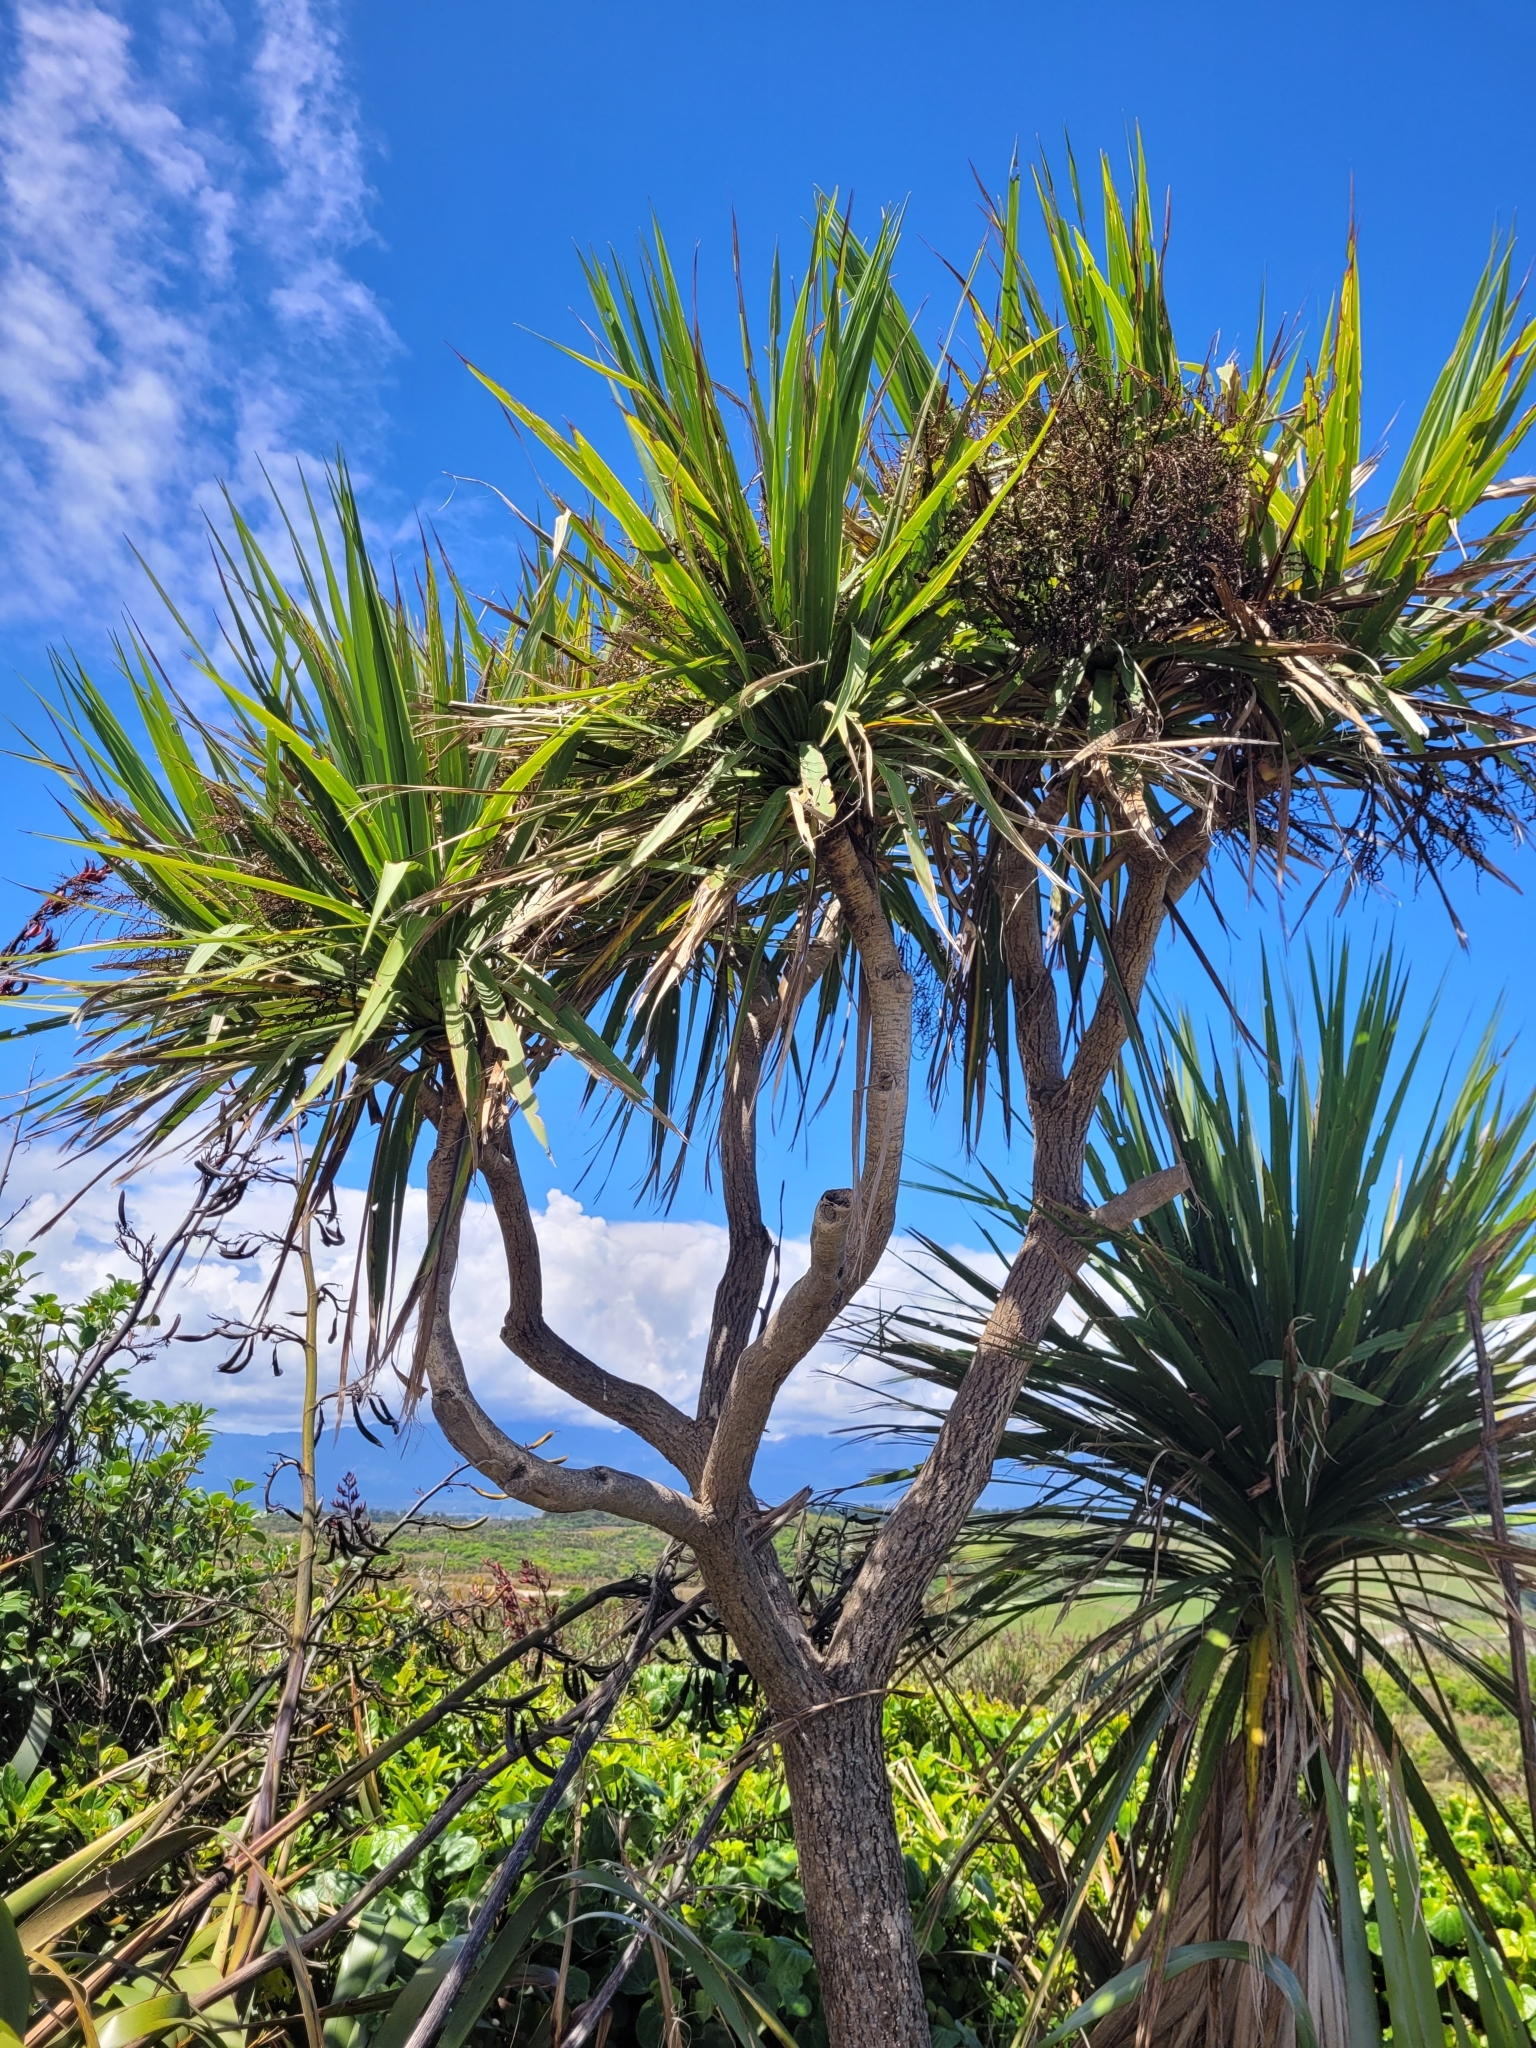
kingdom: Plantae
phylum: Tracheophyta
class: Liliopsida
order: Asparagales
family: Asparagaceae
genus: Cordyline
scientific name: Cordyline australis
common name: Cabbage-palm
